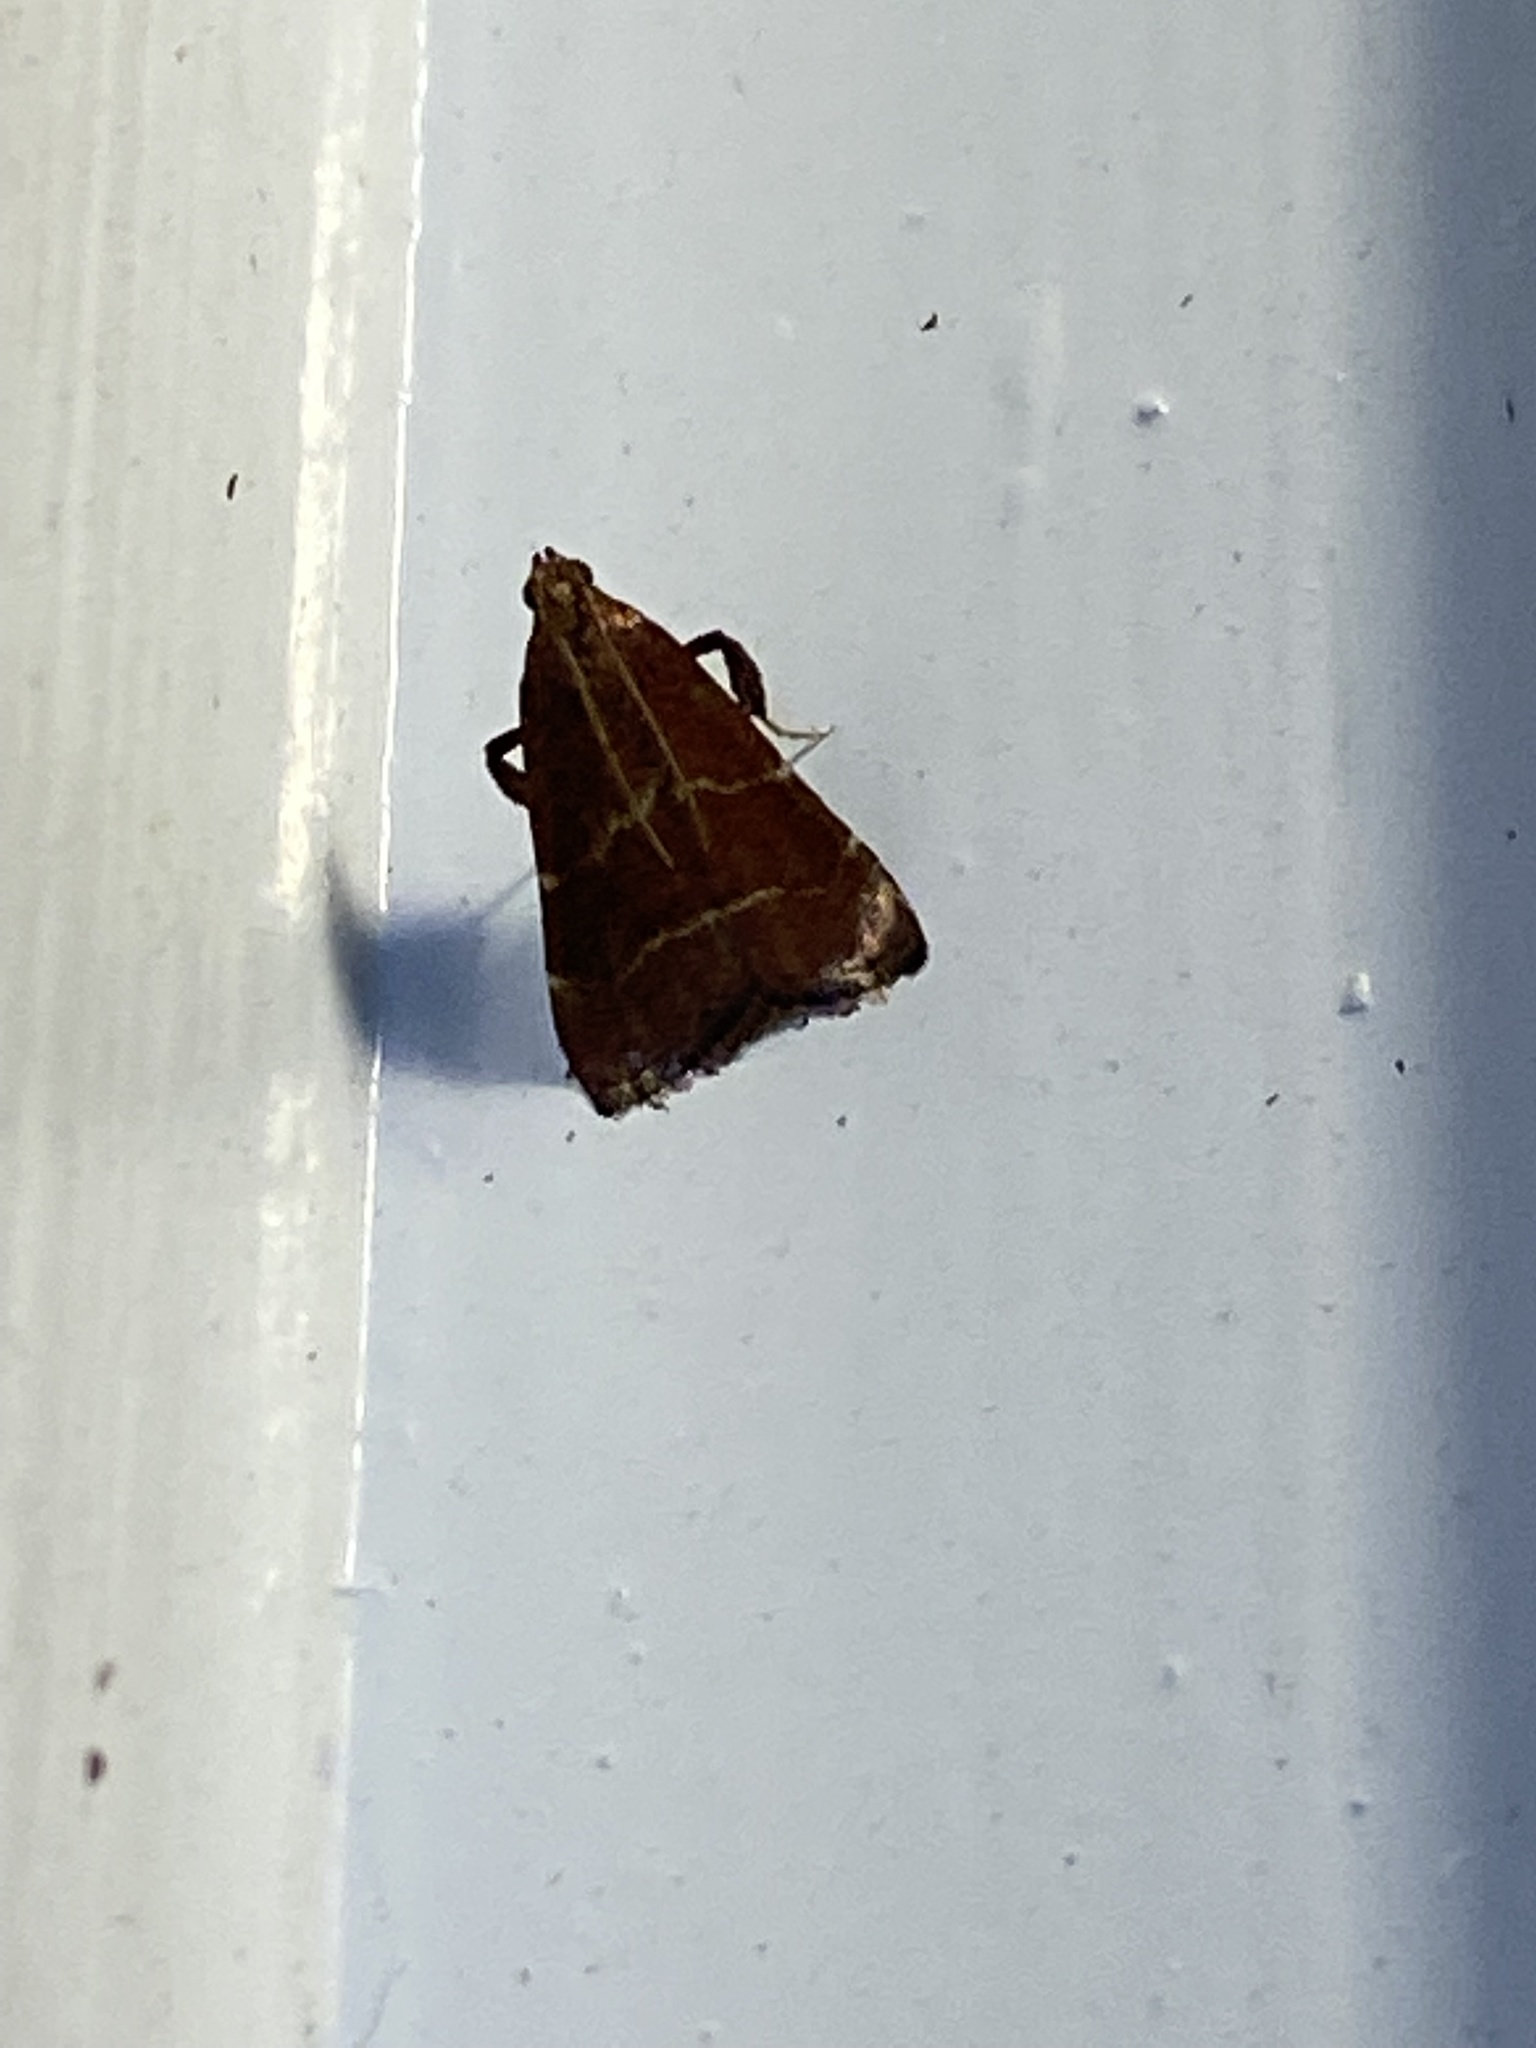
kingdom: Animalia
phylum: Arthropoda
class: Insecta
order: Lepidoptera
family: Pyralidae
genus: Arta
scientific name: Arta statalis
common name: Posturing arta moth
